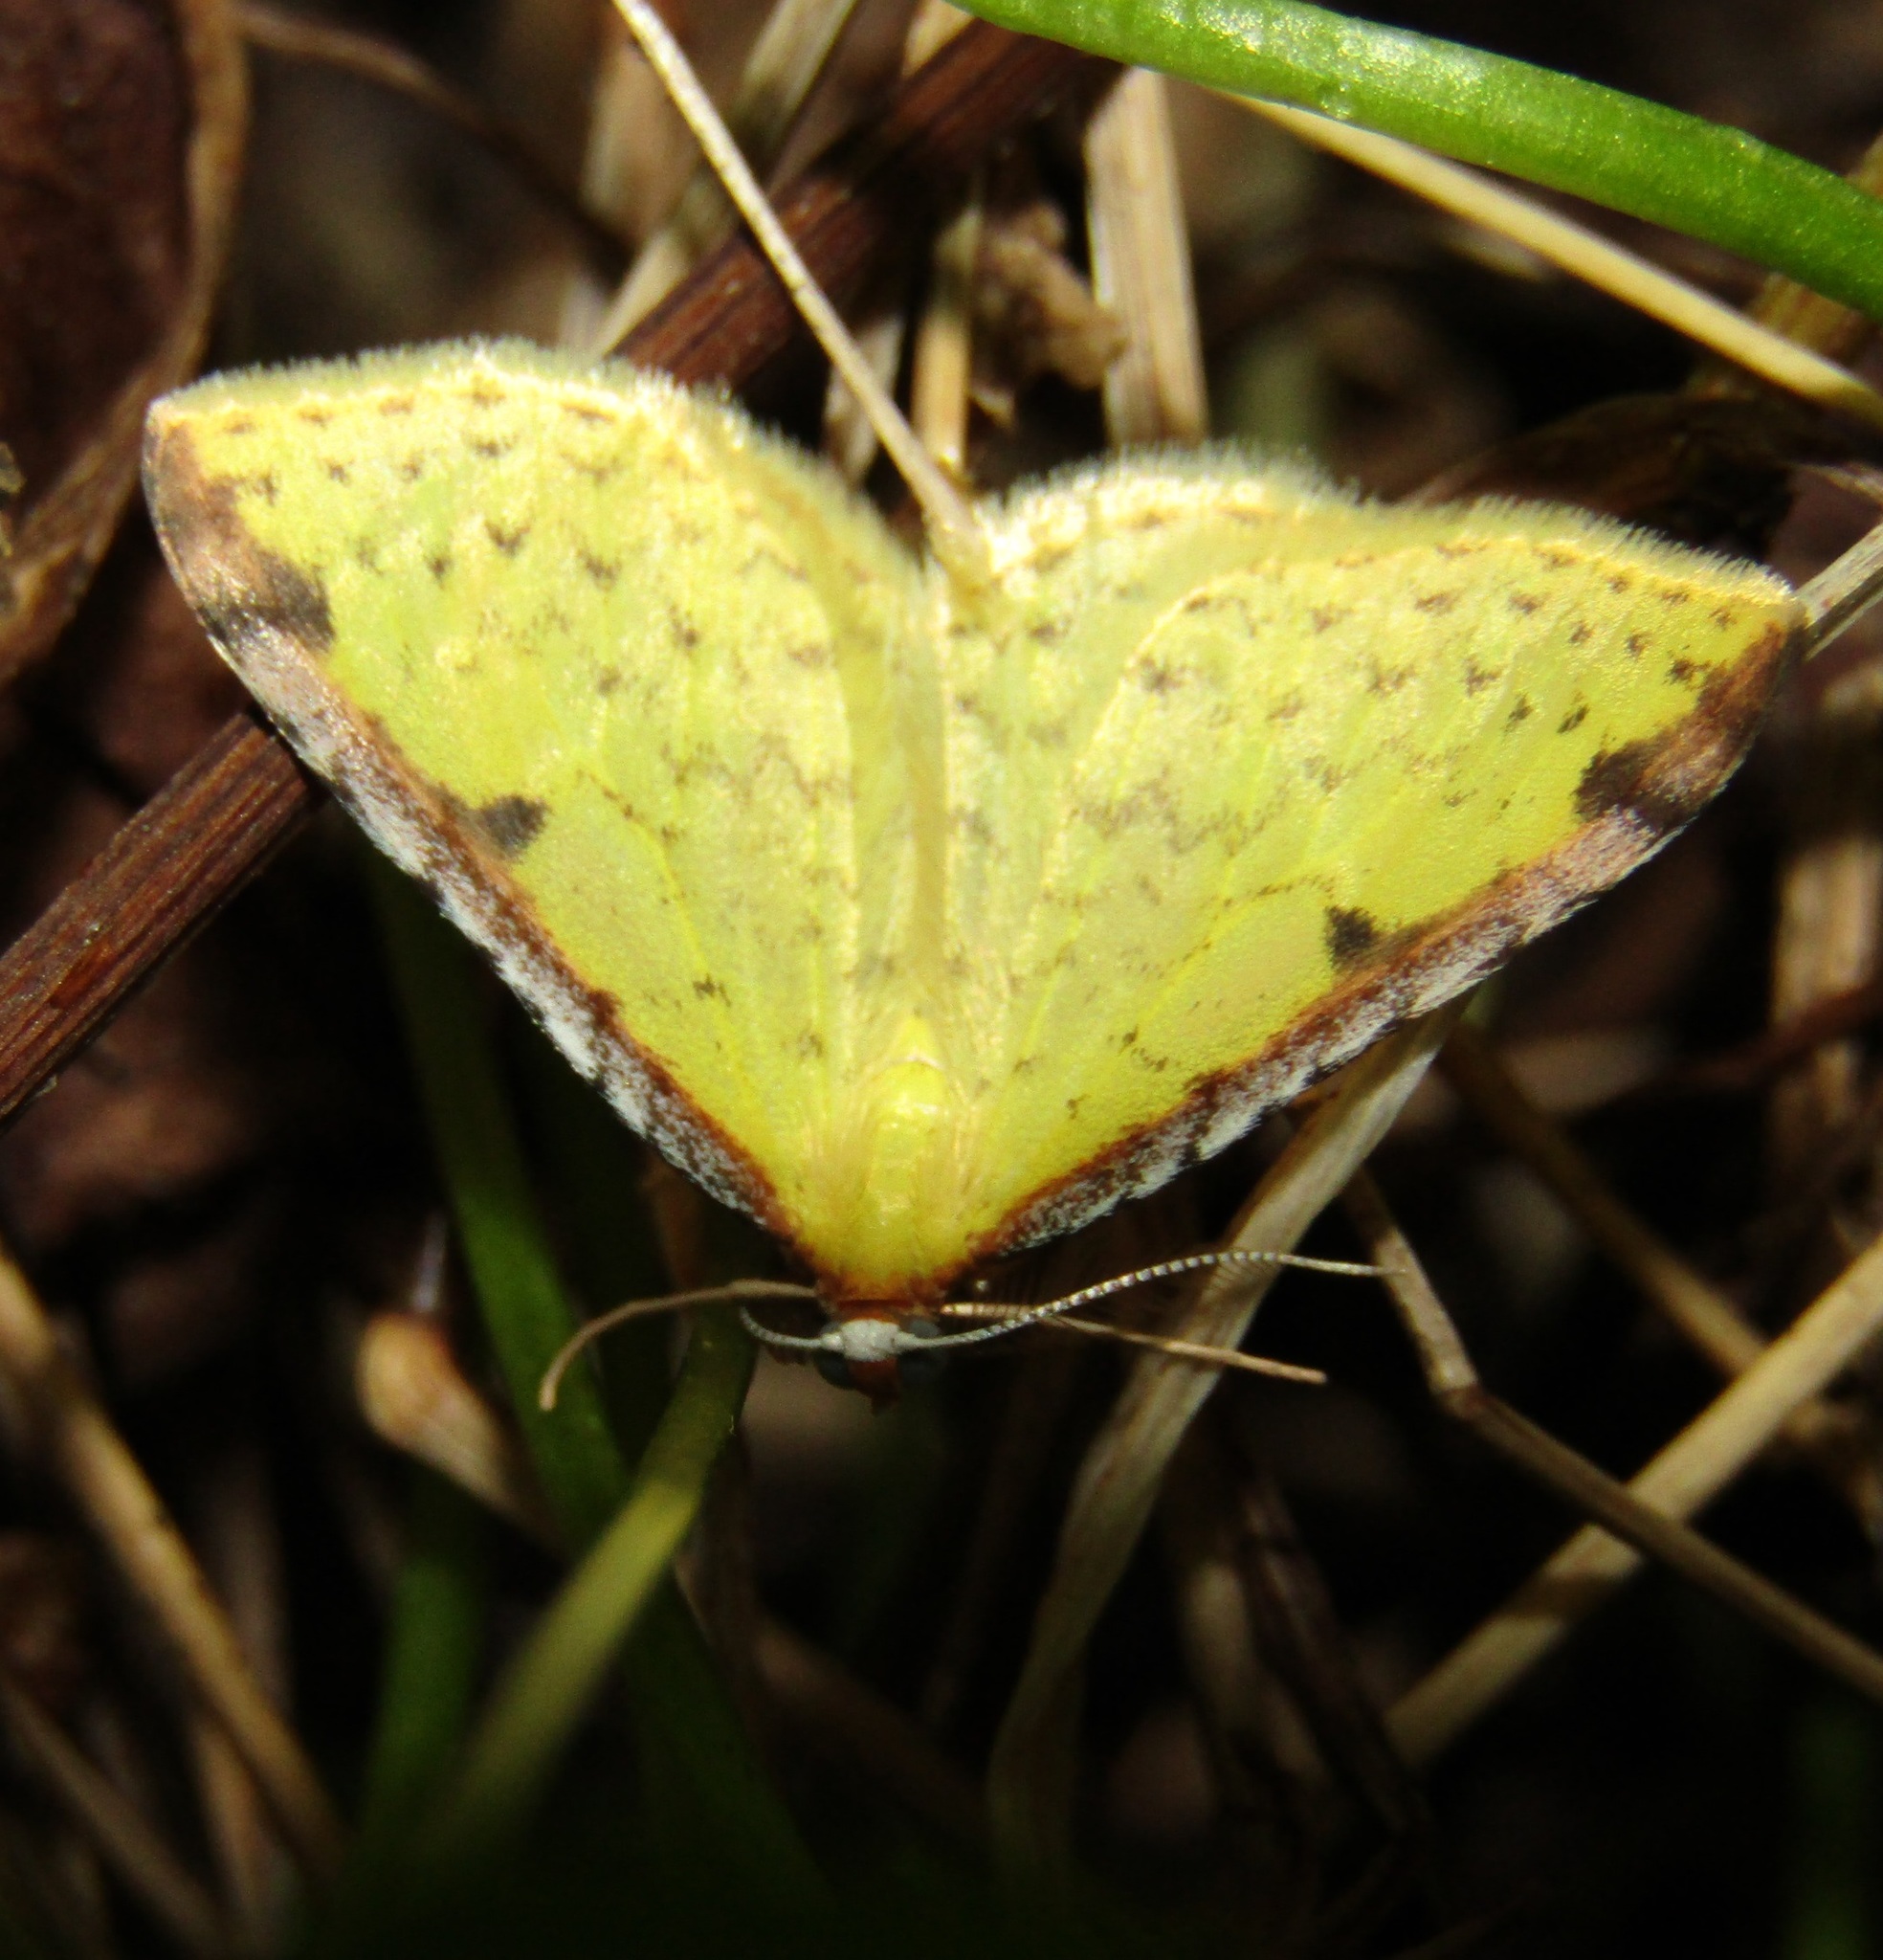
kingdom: Animalia
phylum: Arthropoda
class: Insecta
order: Lepidoptera
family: Geometridae
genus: Epiphryne
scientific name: Epiphryne undosata
